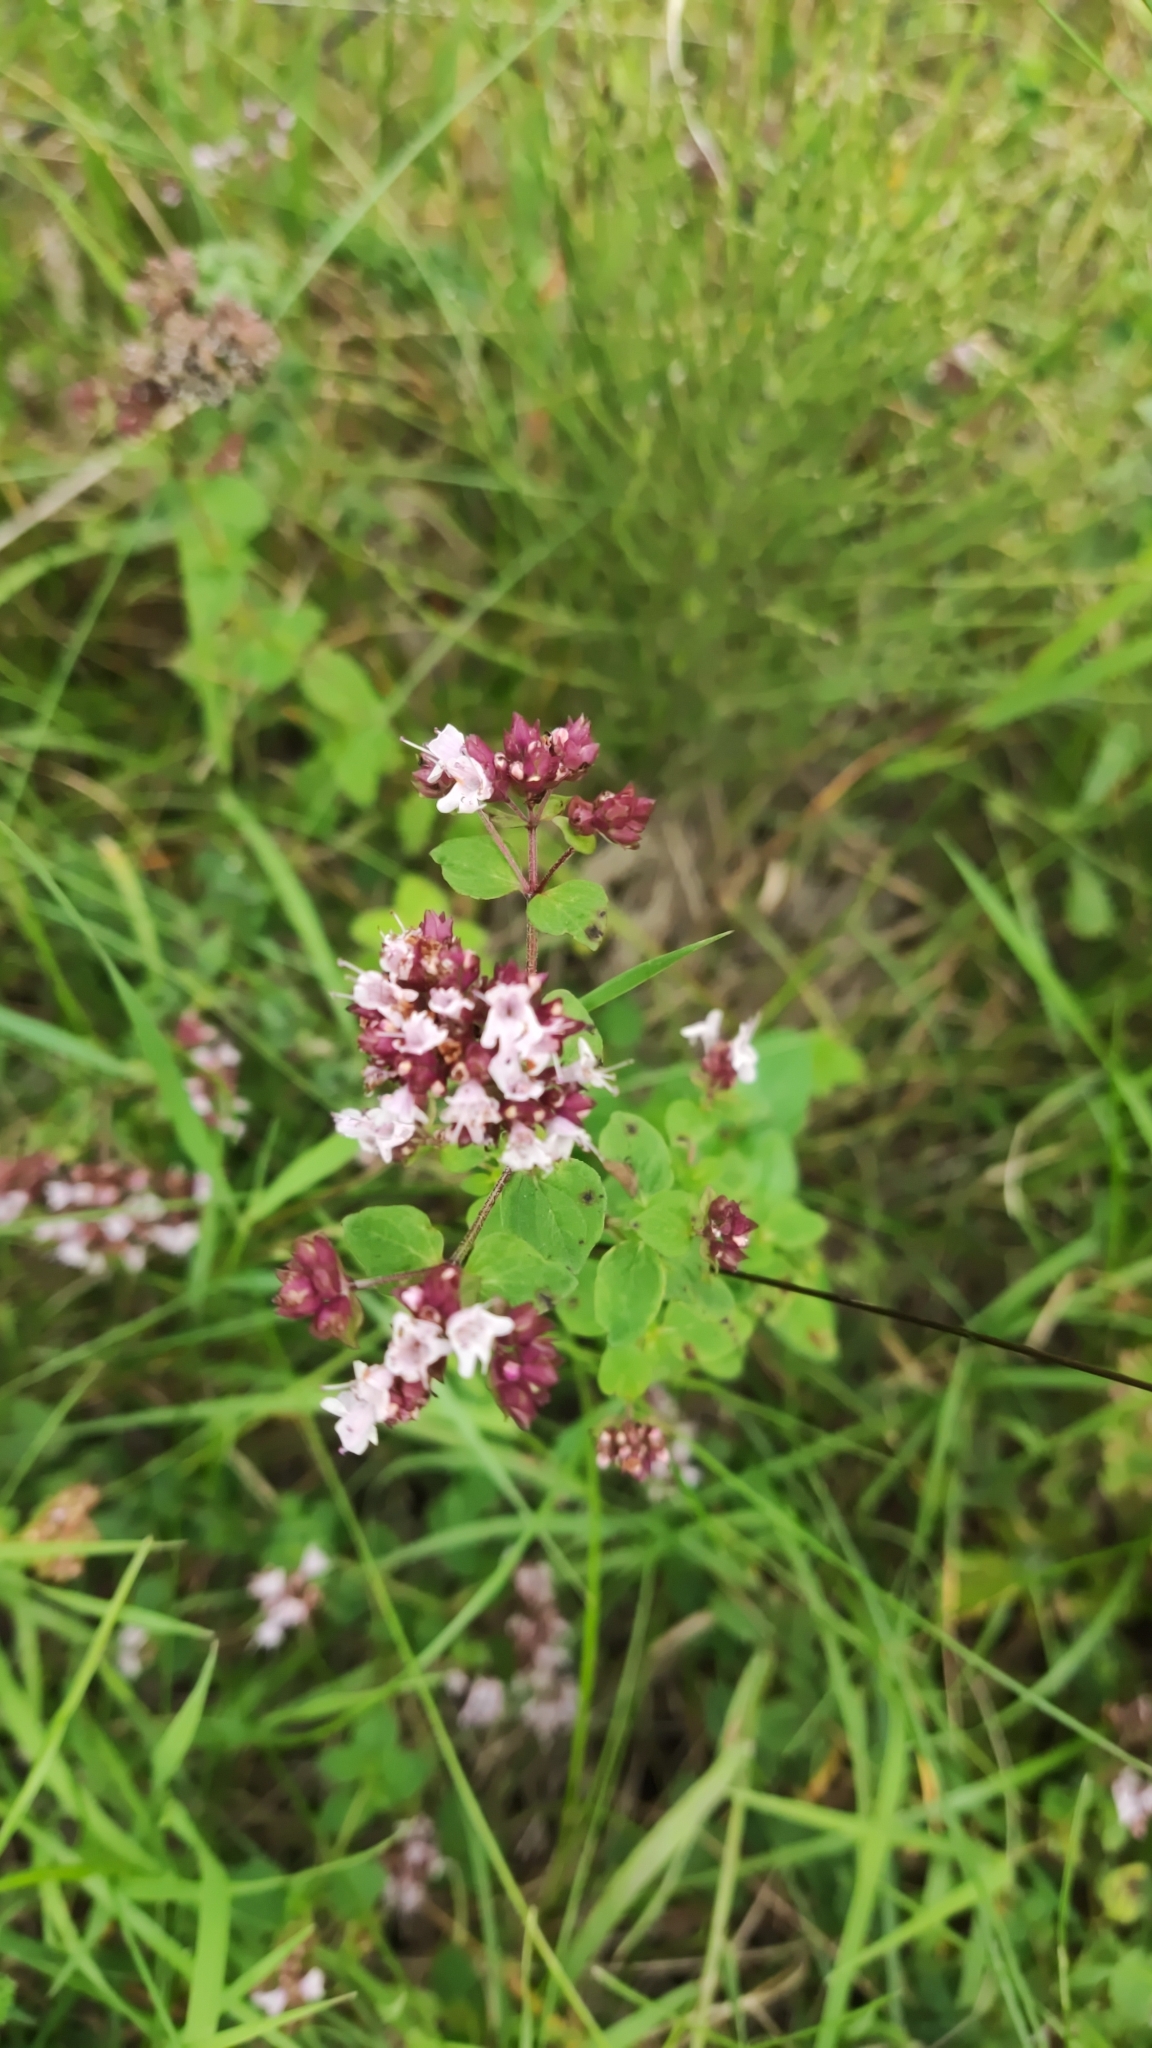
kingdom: Plantae
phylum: Tracheophyta
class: Magnoliopsida
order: Lamiales
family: Lamiaceae
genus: Origanum
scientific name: Origanum vulgare
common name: Wild marjoram
